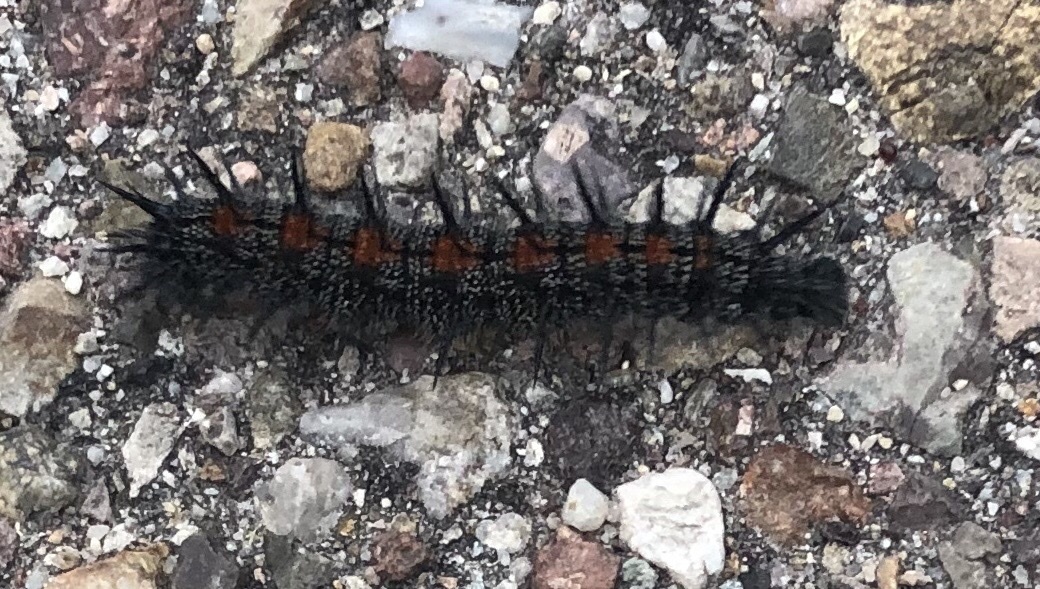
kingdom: Animalia
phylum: Arthropoda
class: Insecta
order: Lepidoptera
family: Nymphalidae
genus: Nymphalis
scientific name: Nymphalis antiopa
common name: Camberwell beauty
